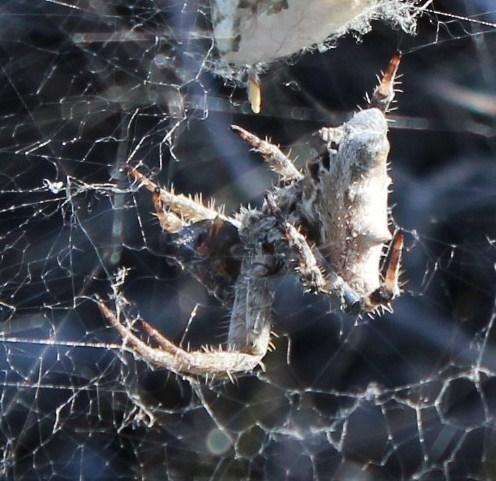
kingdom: Animalia
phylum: Arthropoda
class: Arachnida
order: Araneae
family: Araneidae
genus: Cyrtophora
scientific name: Cyrtophora citricola
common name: Orb weavers
